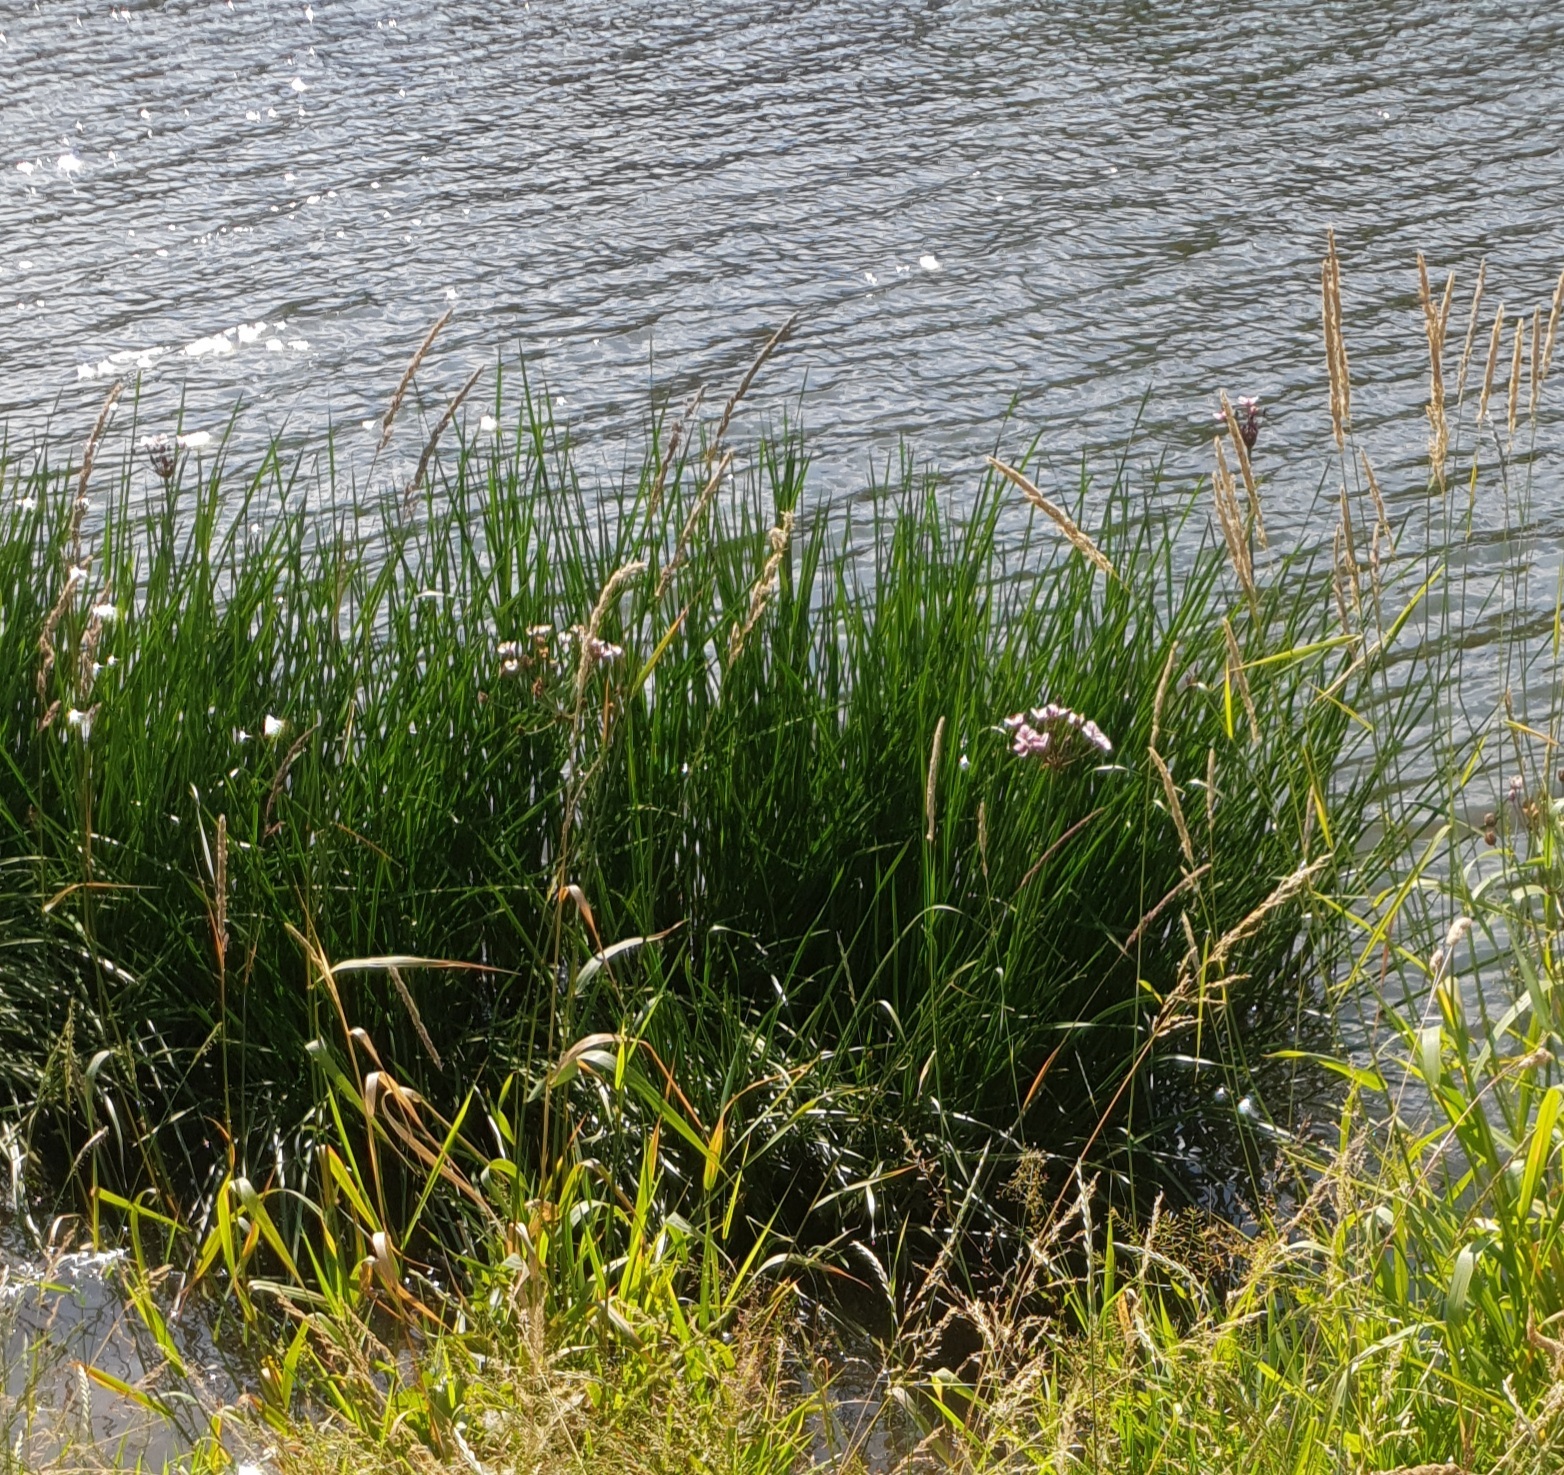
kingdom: Plantae
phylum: Tracheophyta
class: Liliopsida
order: Alismatales
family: Butomaceae
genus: Butomus
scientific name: Butomus umbellatus
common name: Flowering-rush
